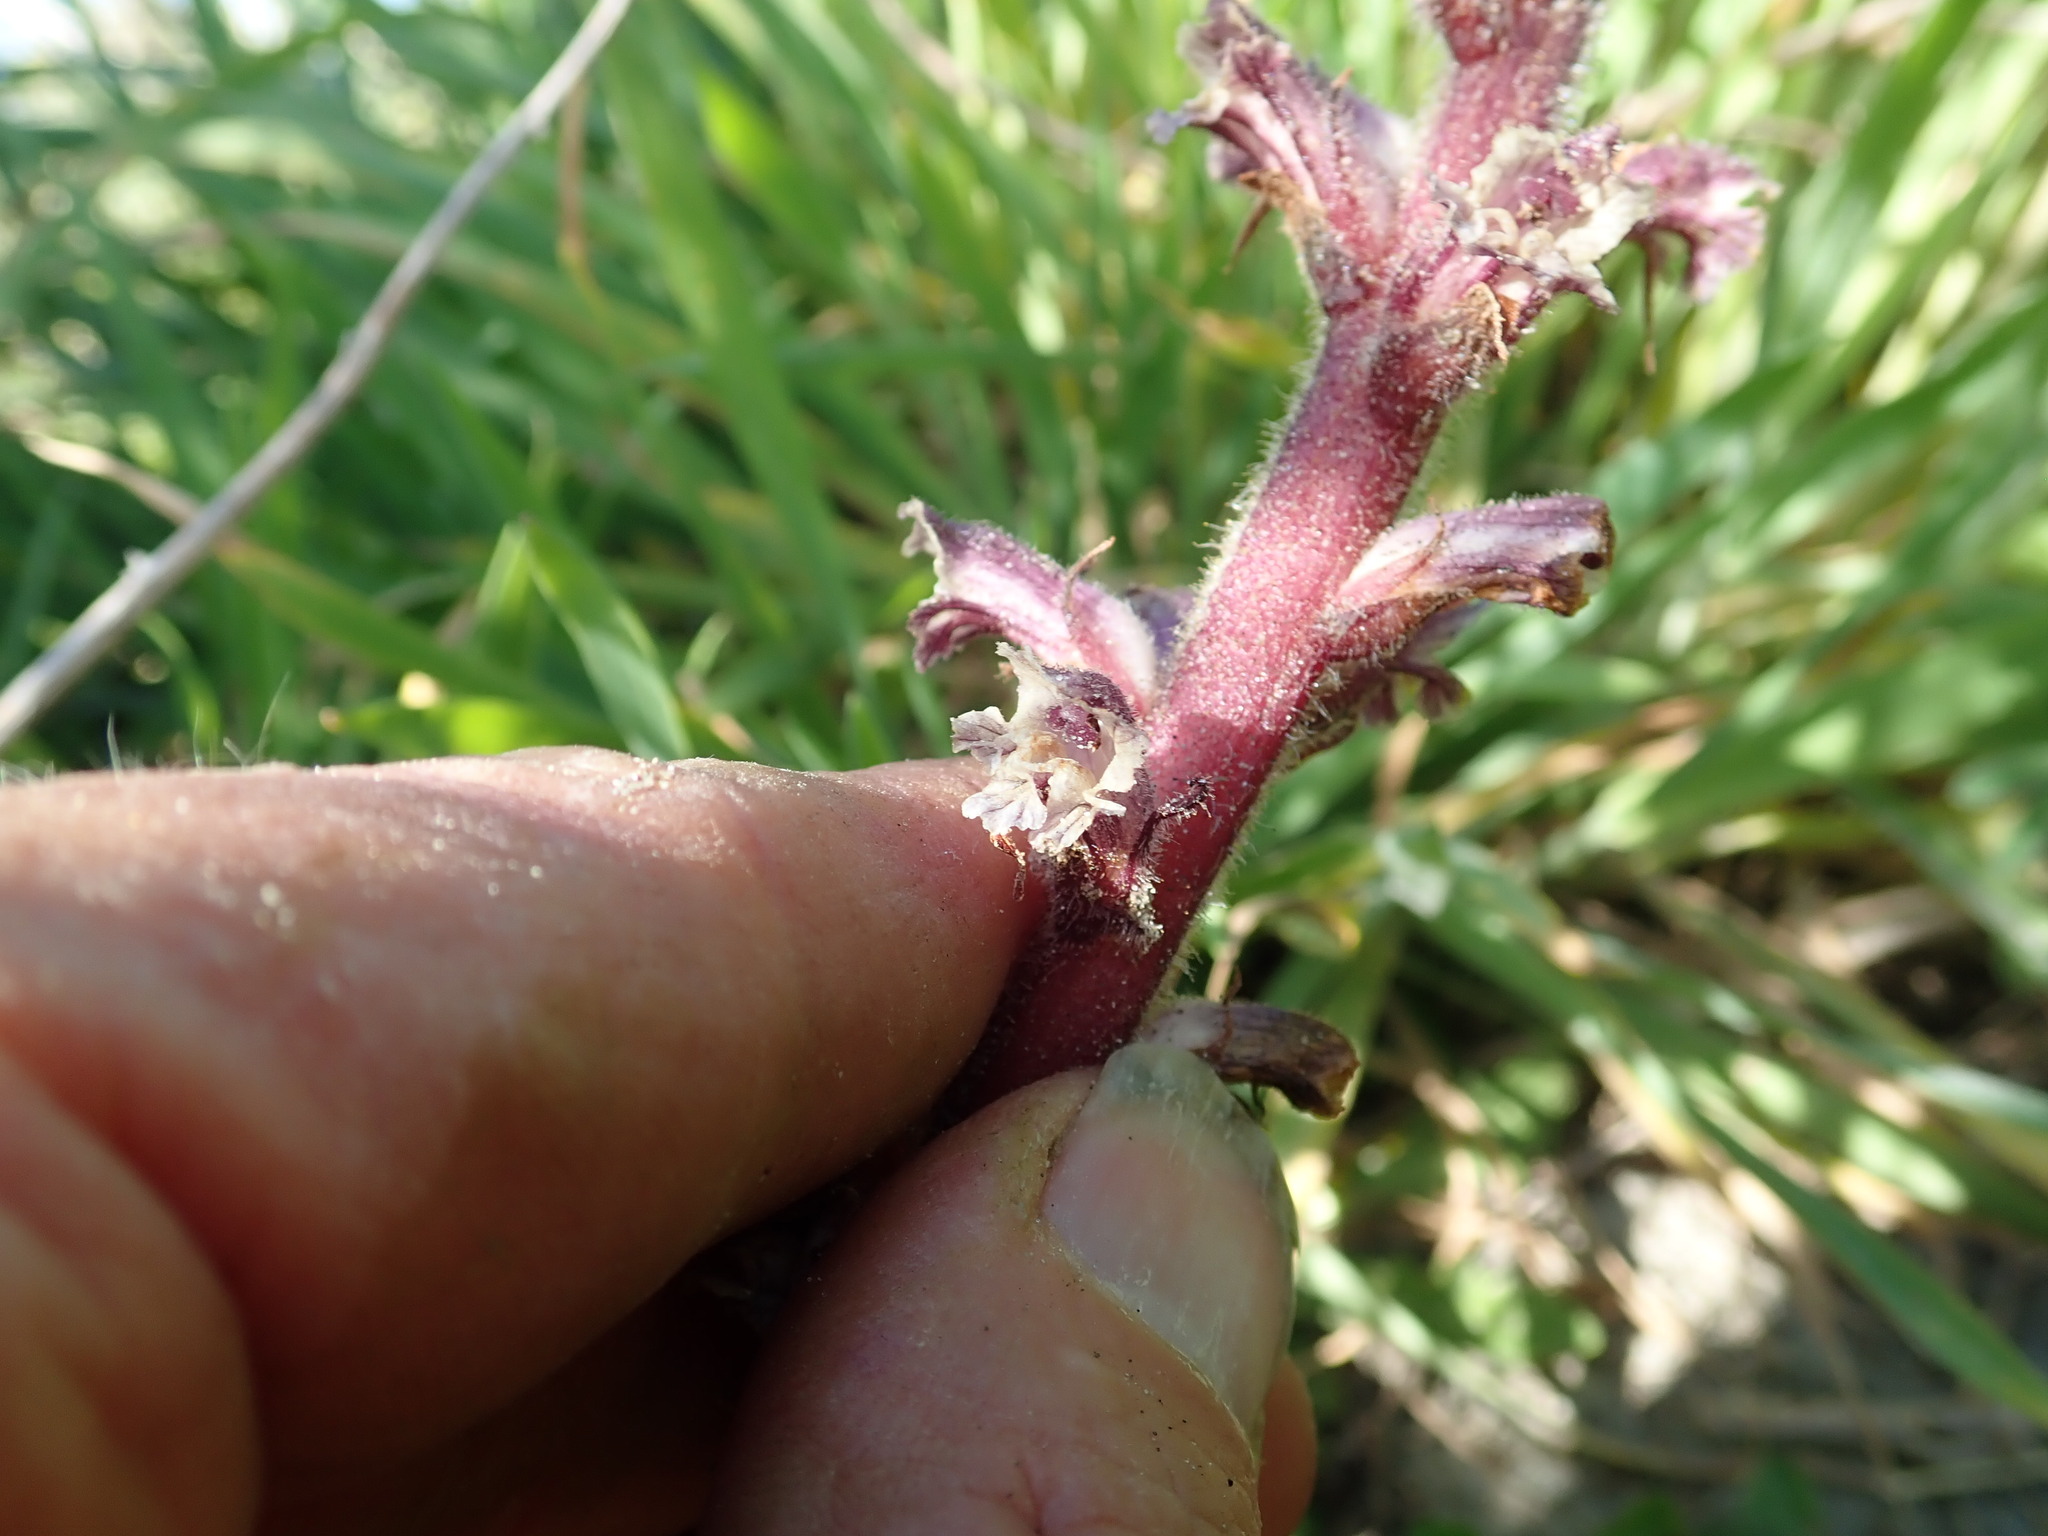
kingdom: Plantae
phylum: Tracheophyta
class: Magnoliopsida
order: Lamiales
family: Orobanchaceae
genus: Orobanche
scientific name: Orobanche minor
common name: Common broomrape
